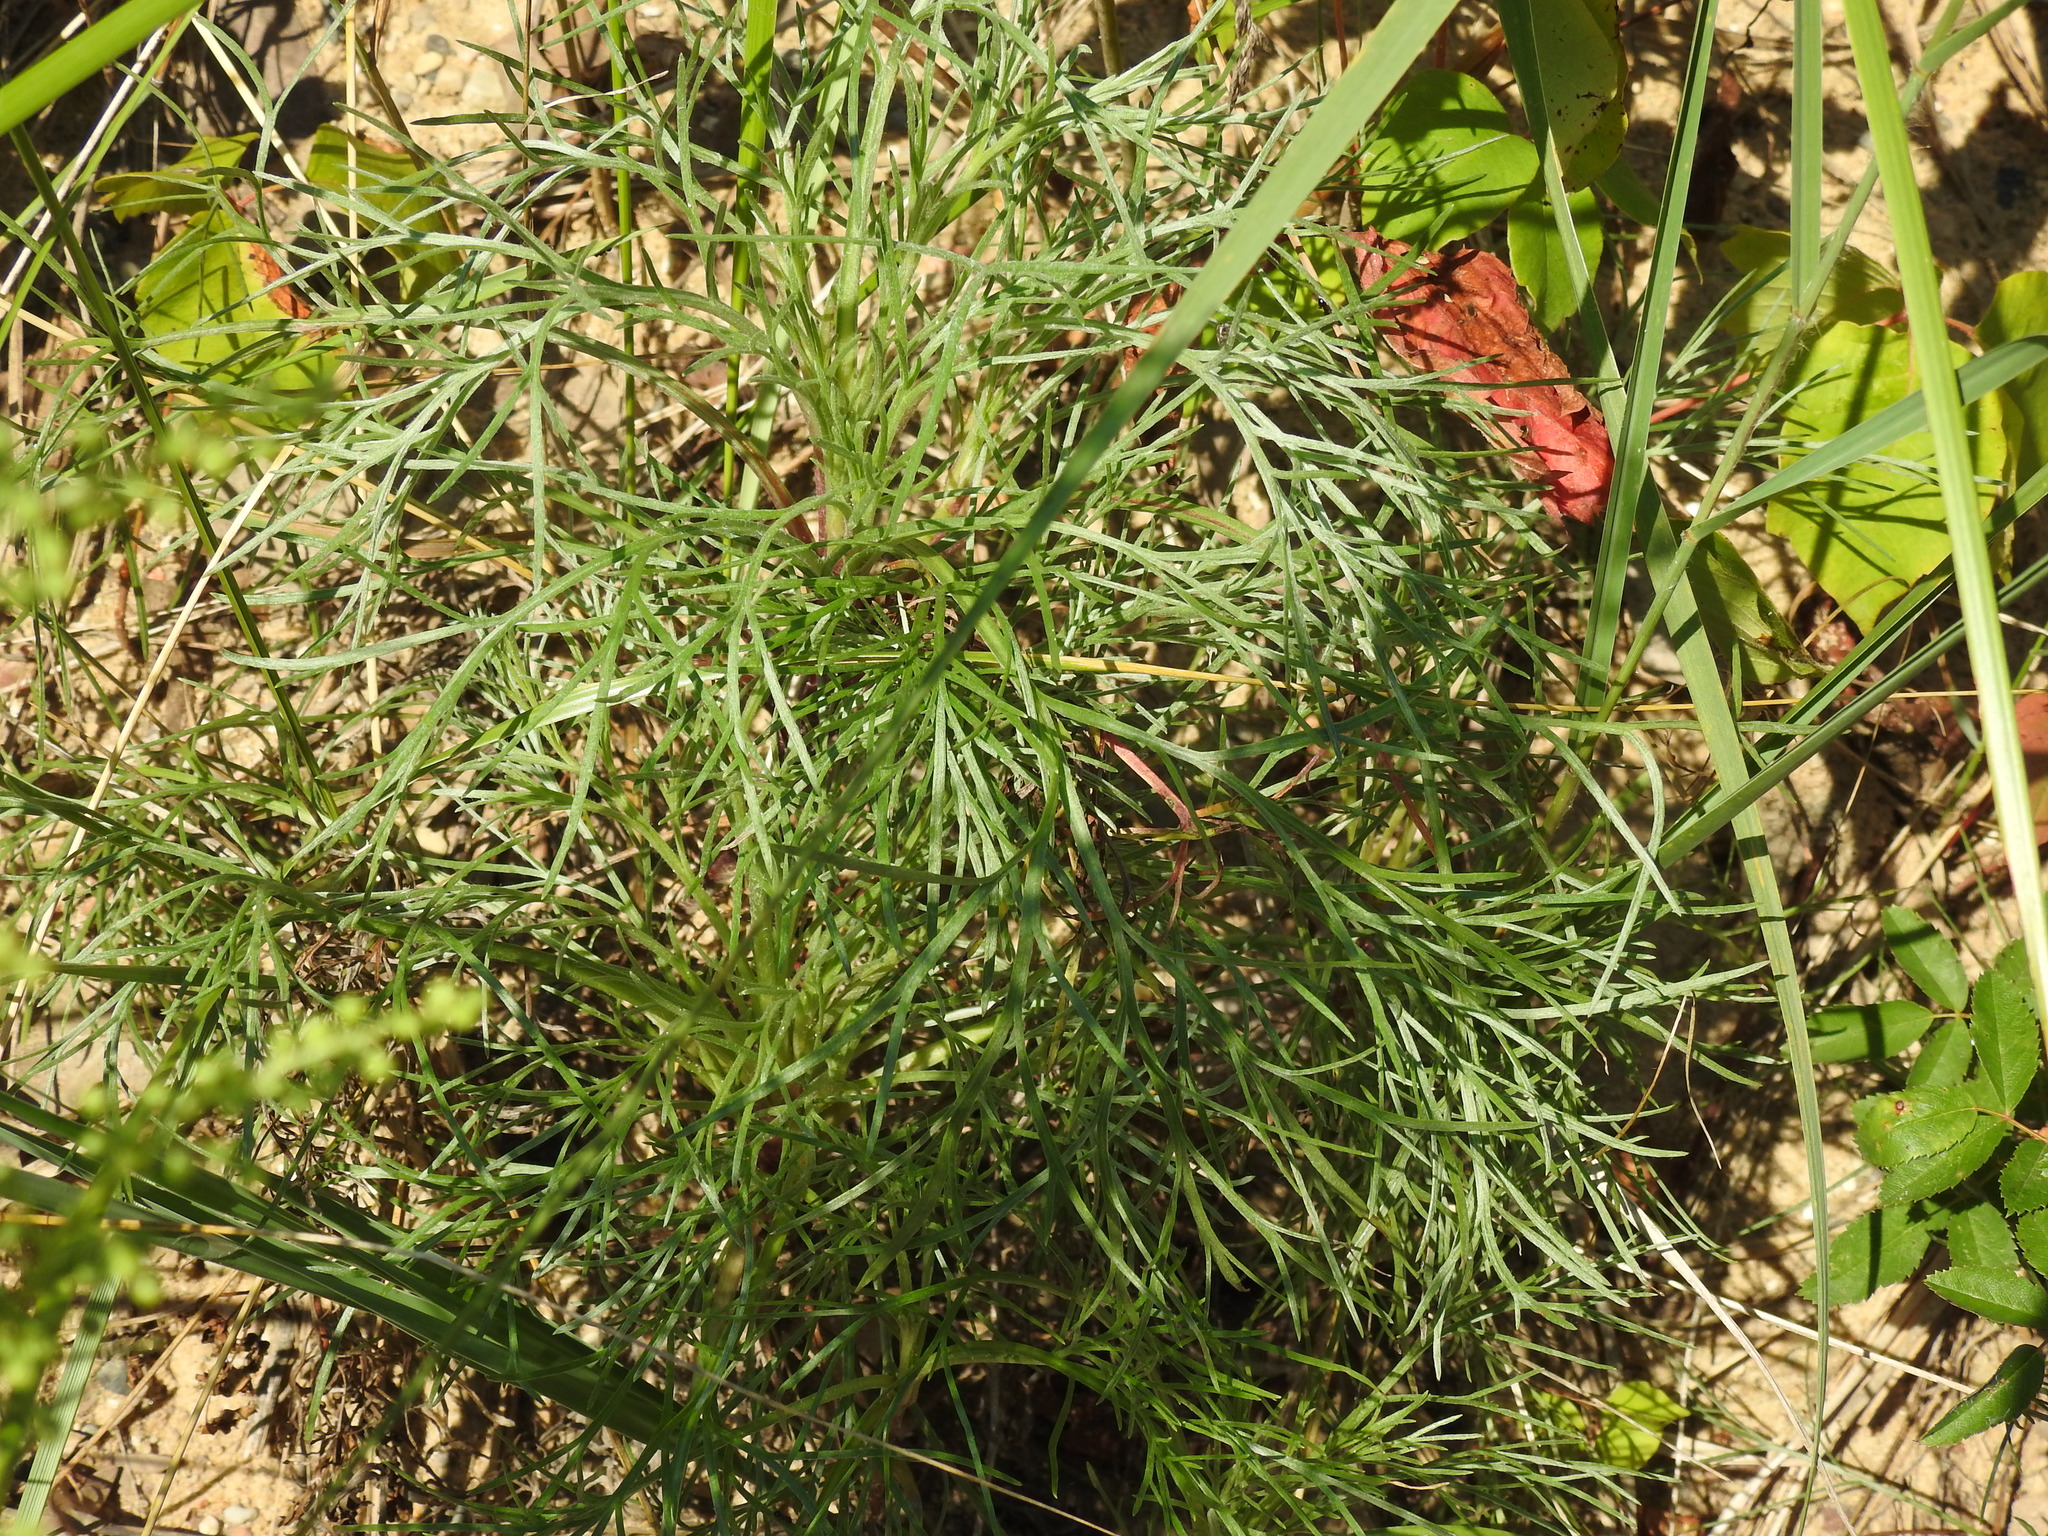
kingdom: Plantae
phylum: Tracheophyta
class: Magnoliopsida
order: Asterales
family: Asteraceae
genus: Artemisia
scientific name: Artemisia campestris
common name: Field wormwood
